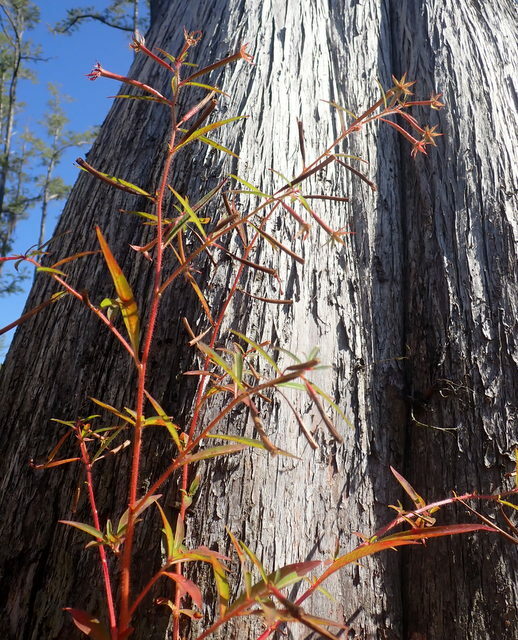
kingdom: Plantae
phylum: Tracheophyta
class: Magnoliopsida
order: Myrtales
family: Onagraceae
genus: Ludwigia
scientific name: Ludwigia leptocarpa
